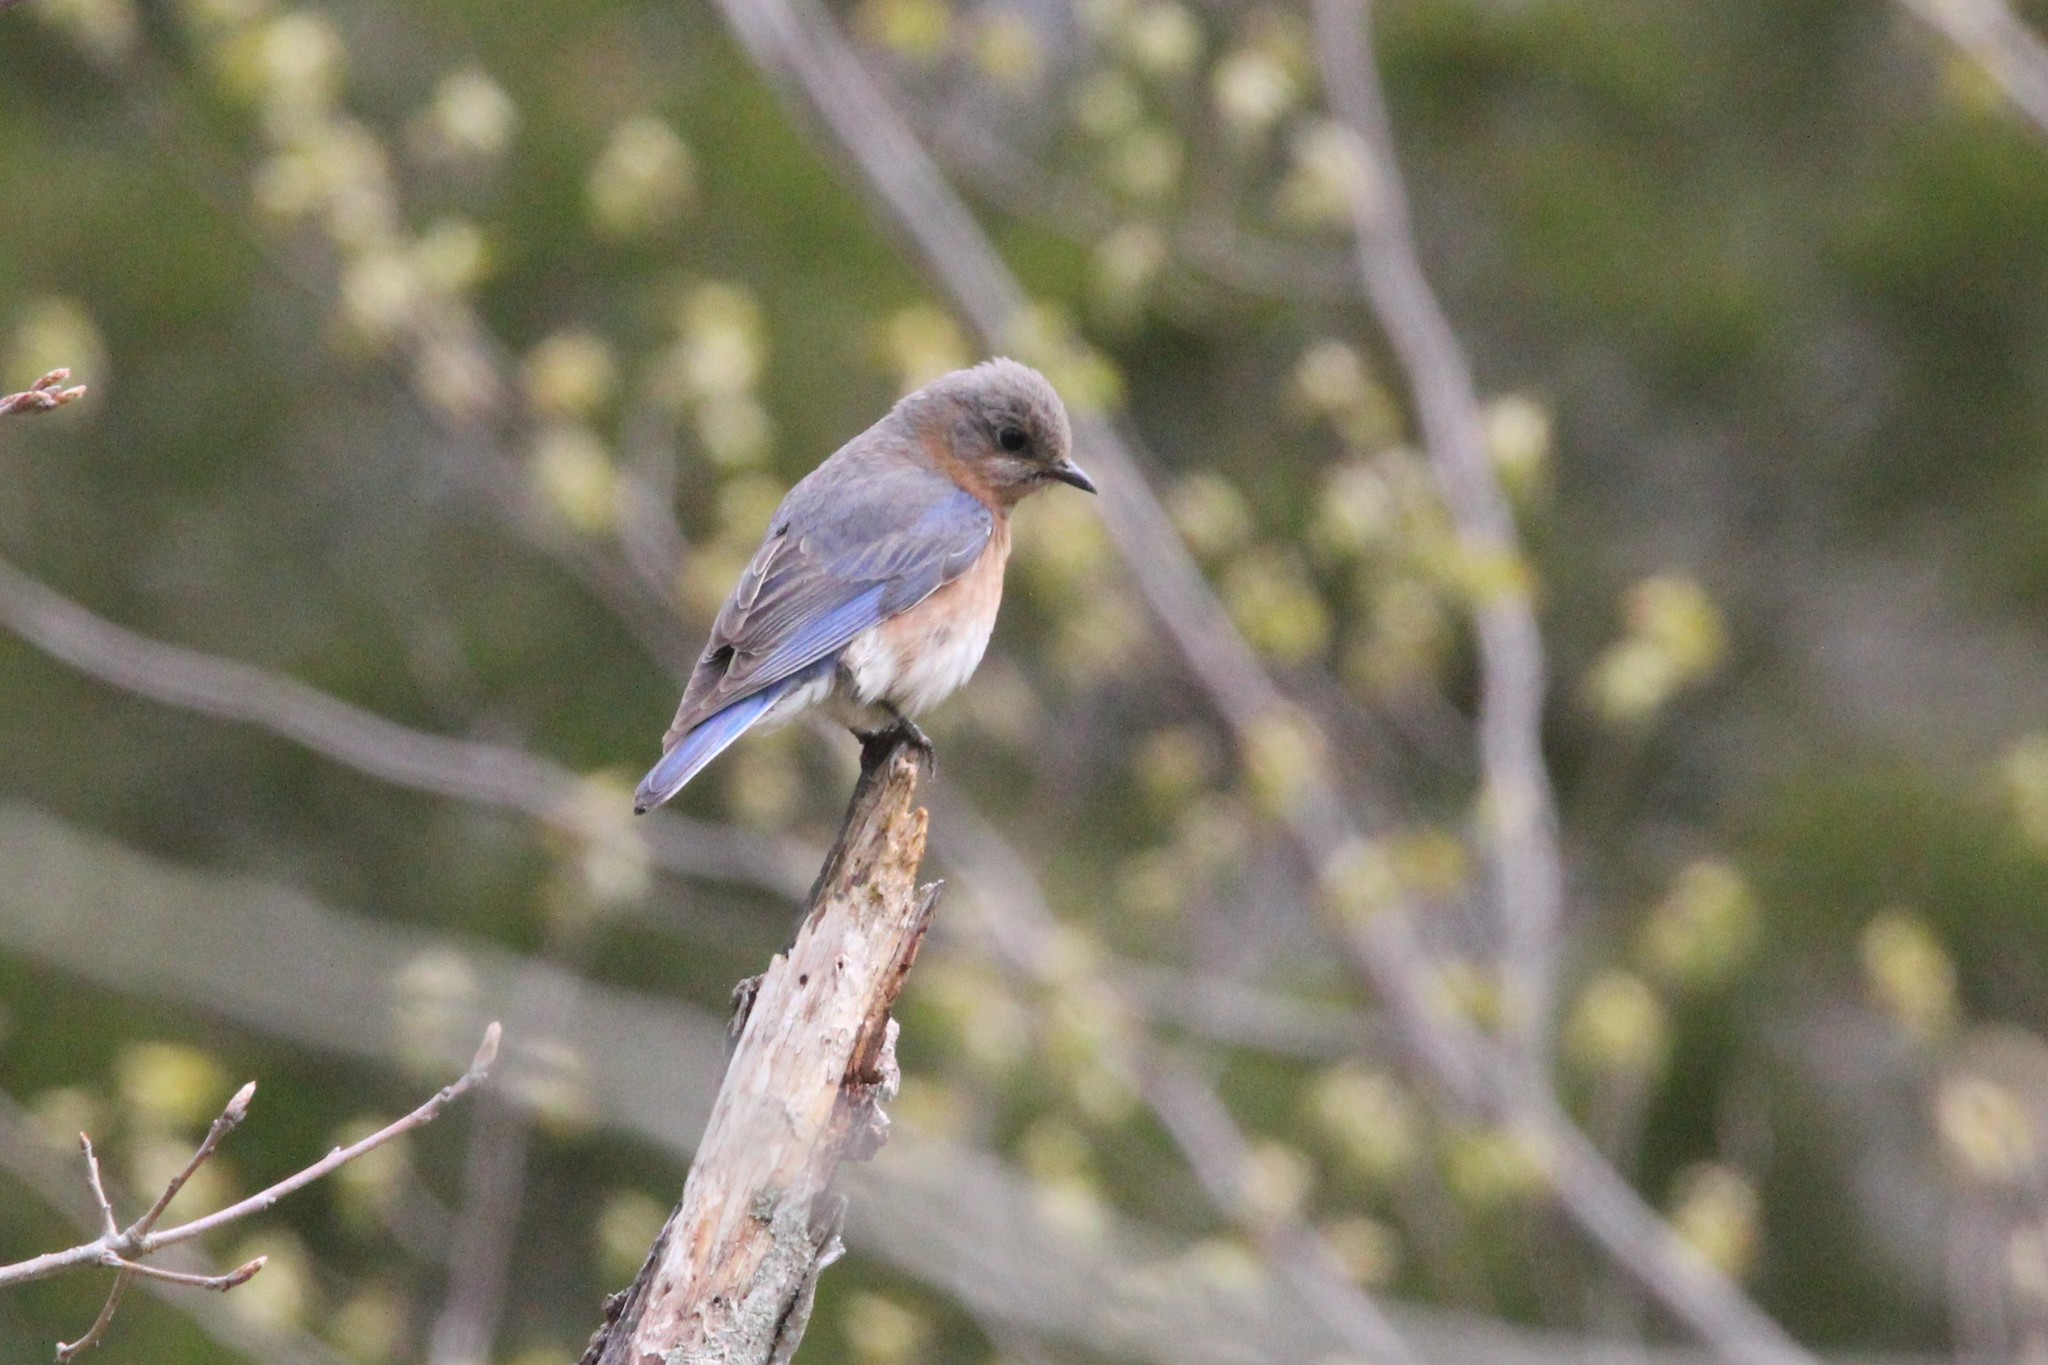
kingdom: Animalia
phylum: Chordata
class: Aves
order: Passeriformes
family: Turdidae
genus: Sialia
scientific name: Sialia sialis
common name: Eastern bluebird
